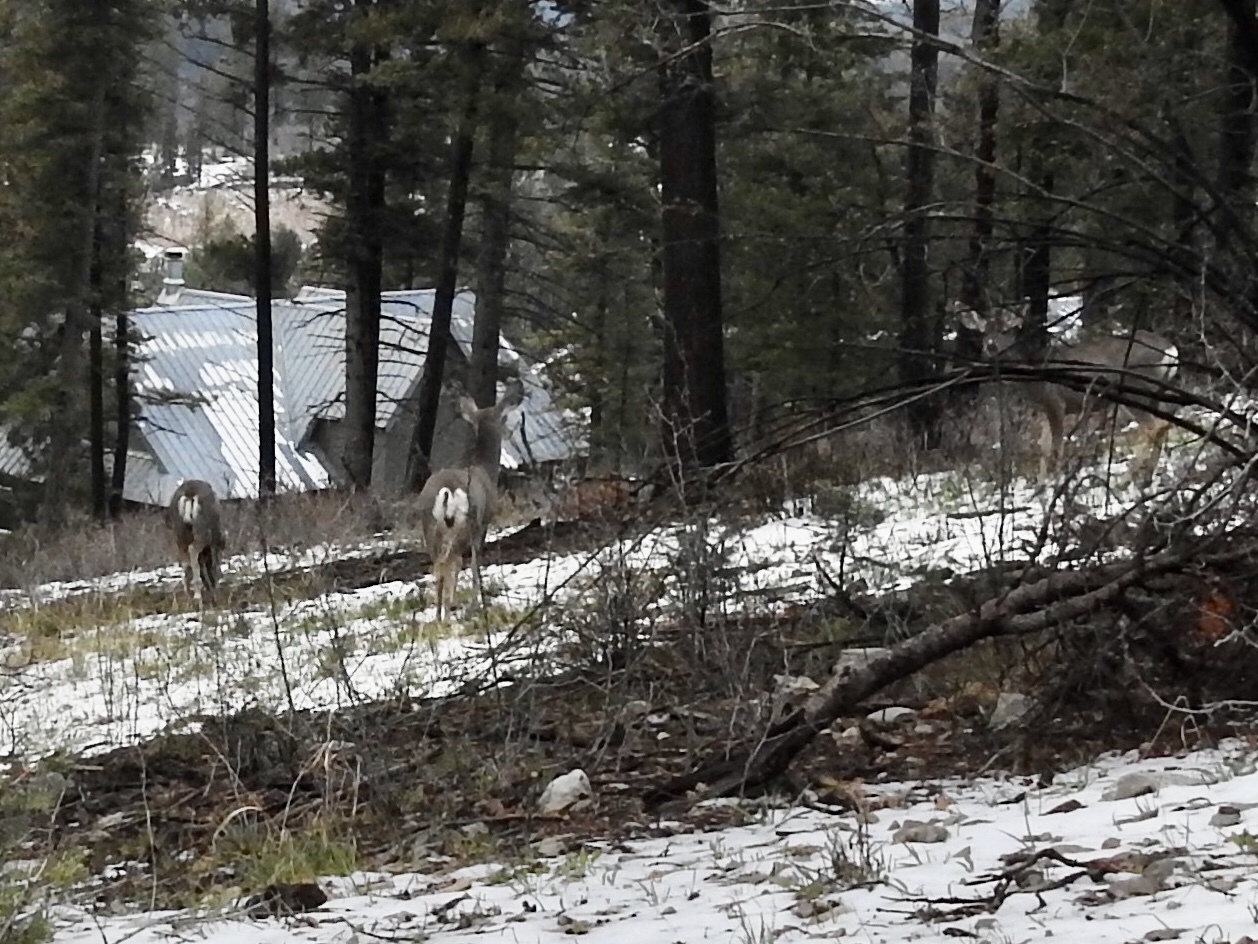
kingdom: Animalia
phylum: Chordata
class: Mammalia
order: Artiodactyla
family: Cervidae
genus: Odocoileus
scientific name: Odocoileus hemionus
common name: Mule deer
